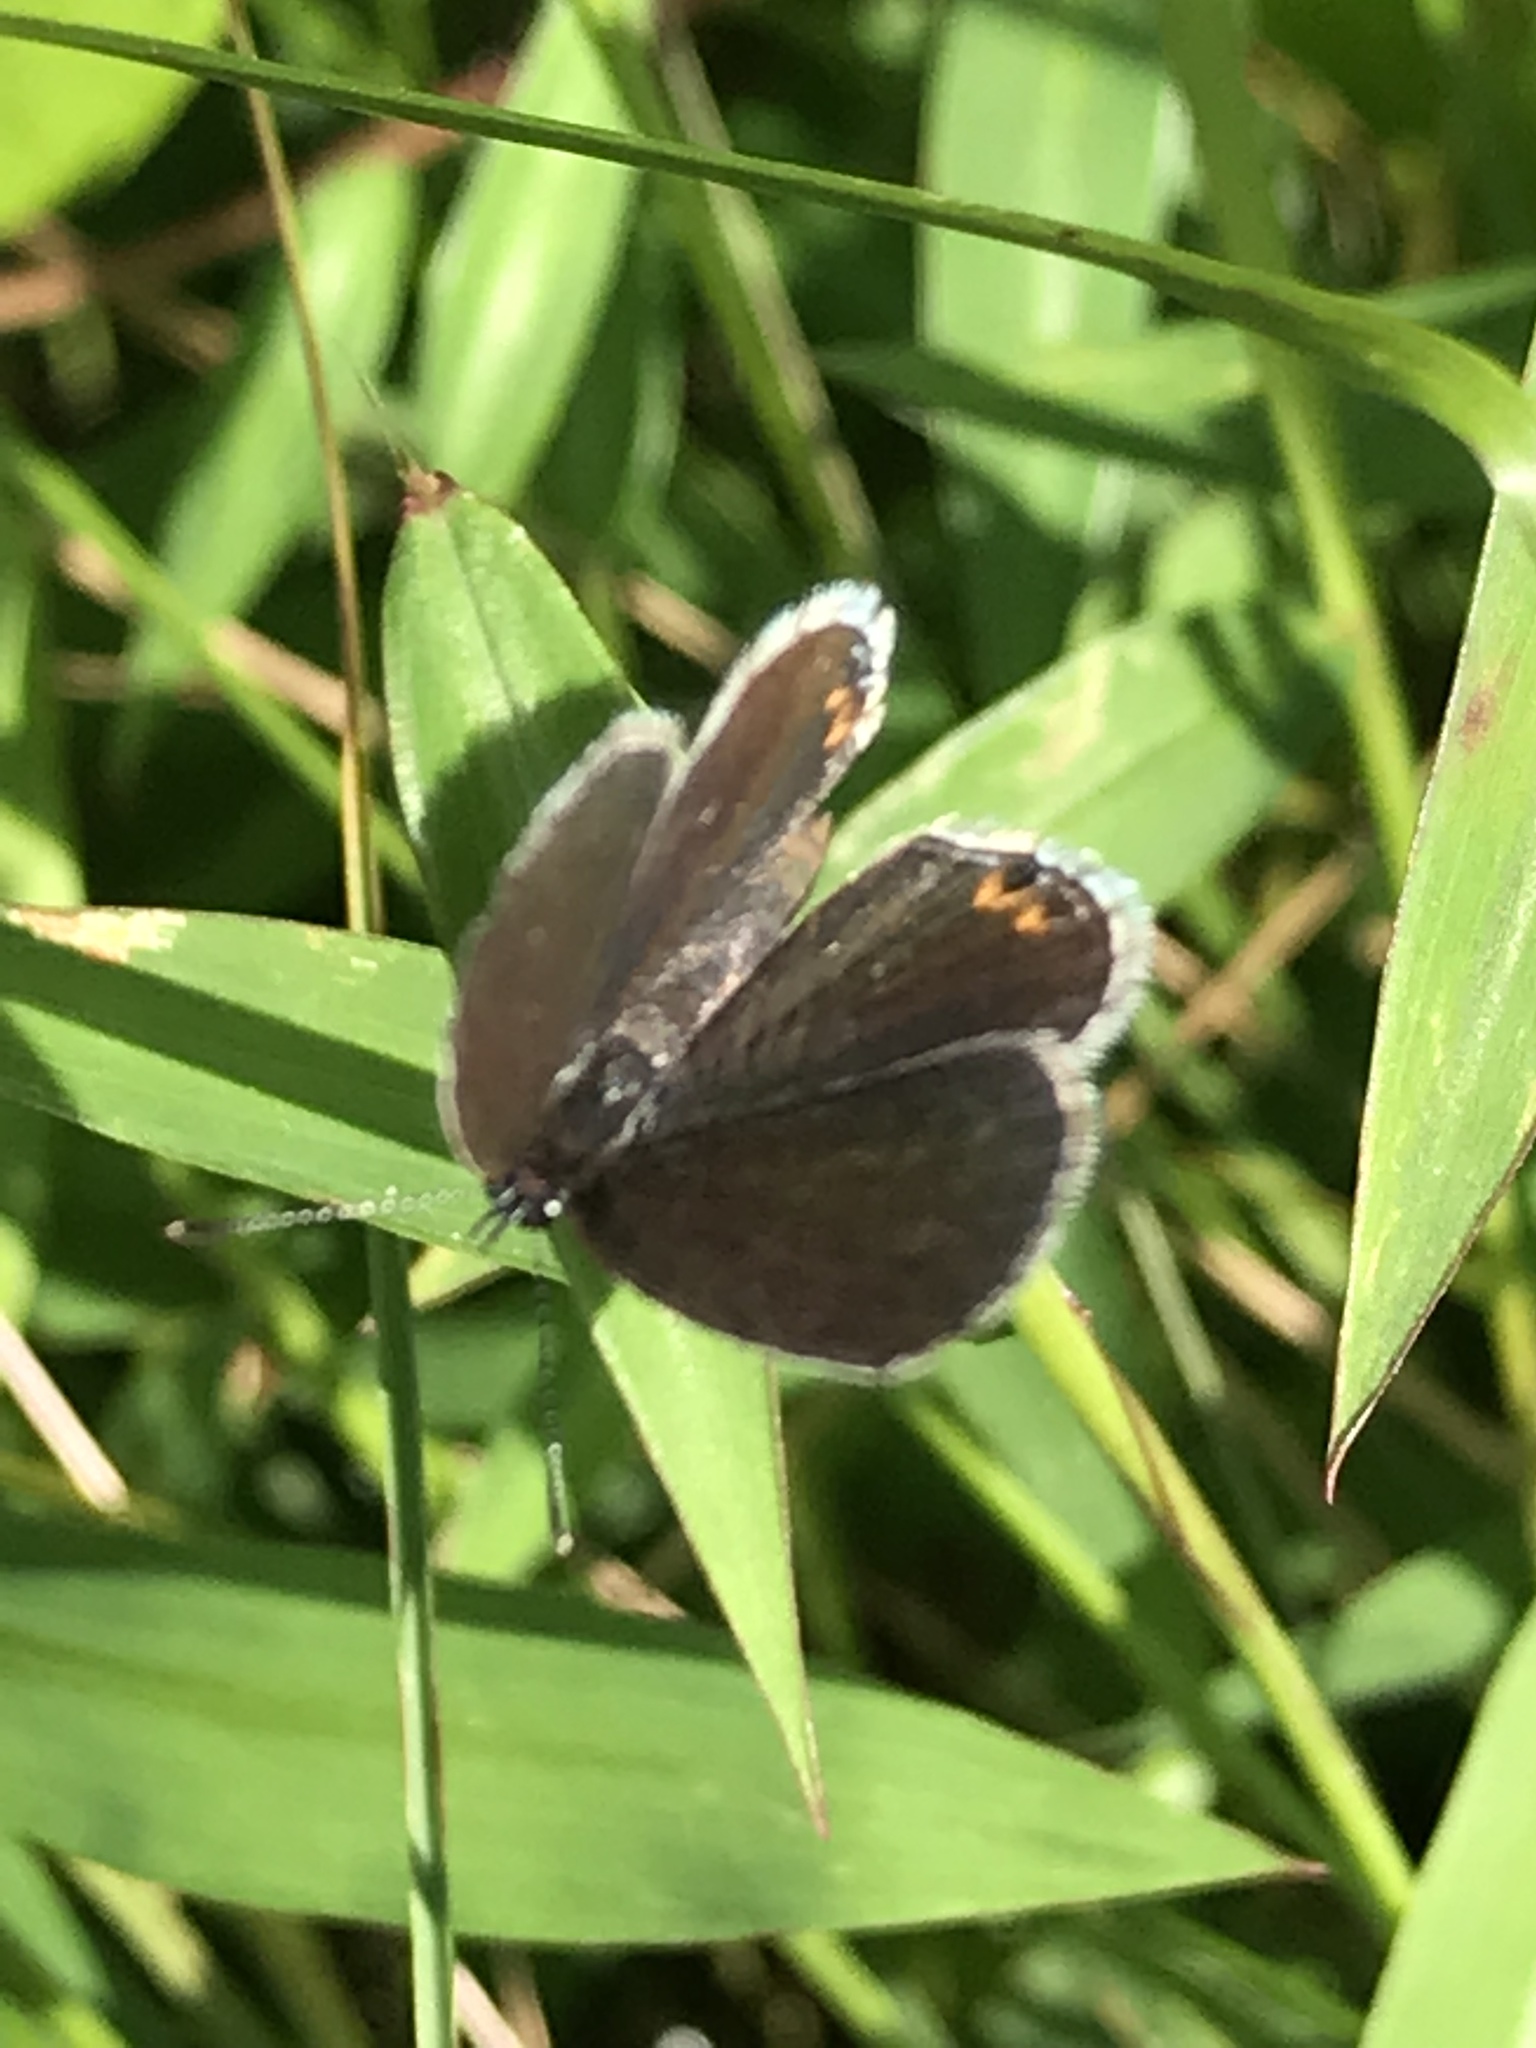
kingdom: Animalia
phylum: Arthropoda
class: Insecta
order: Lepidoptera
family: Lycaenidae
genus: Elkalyce
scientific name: Elkalyce comyntas
